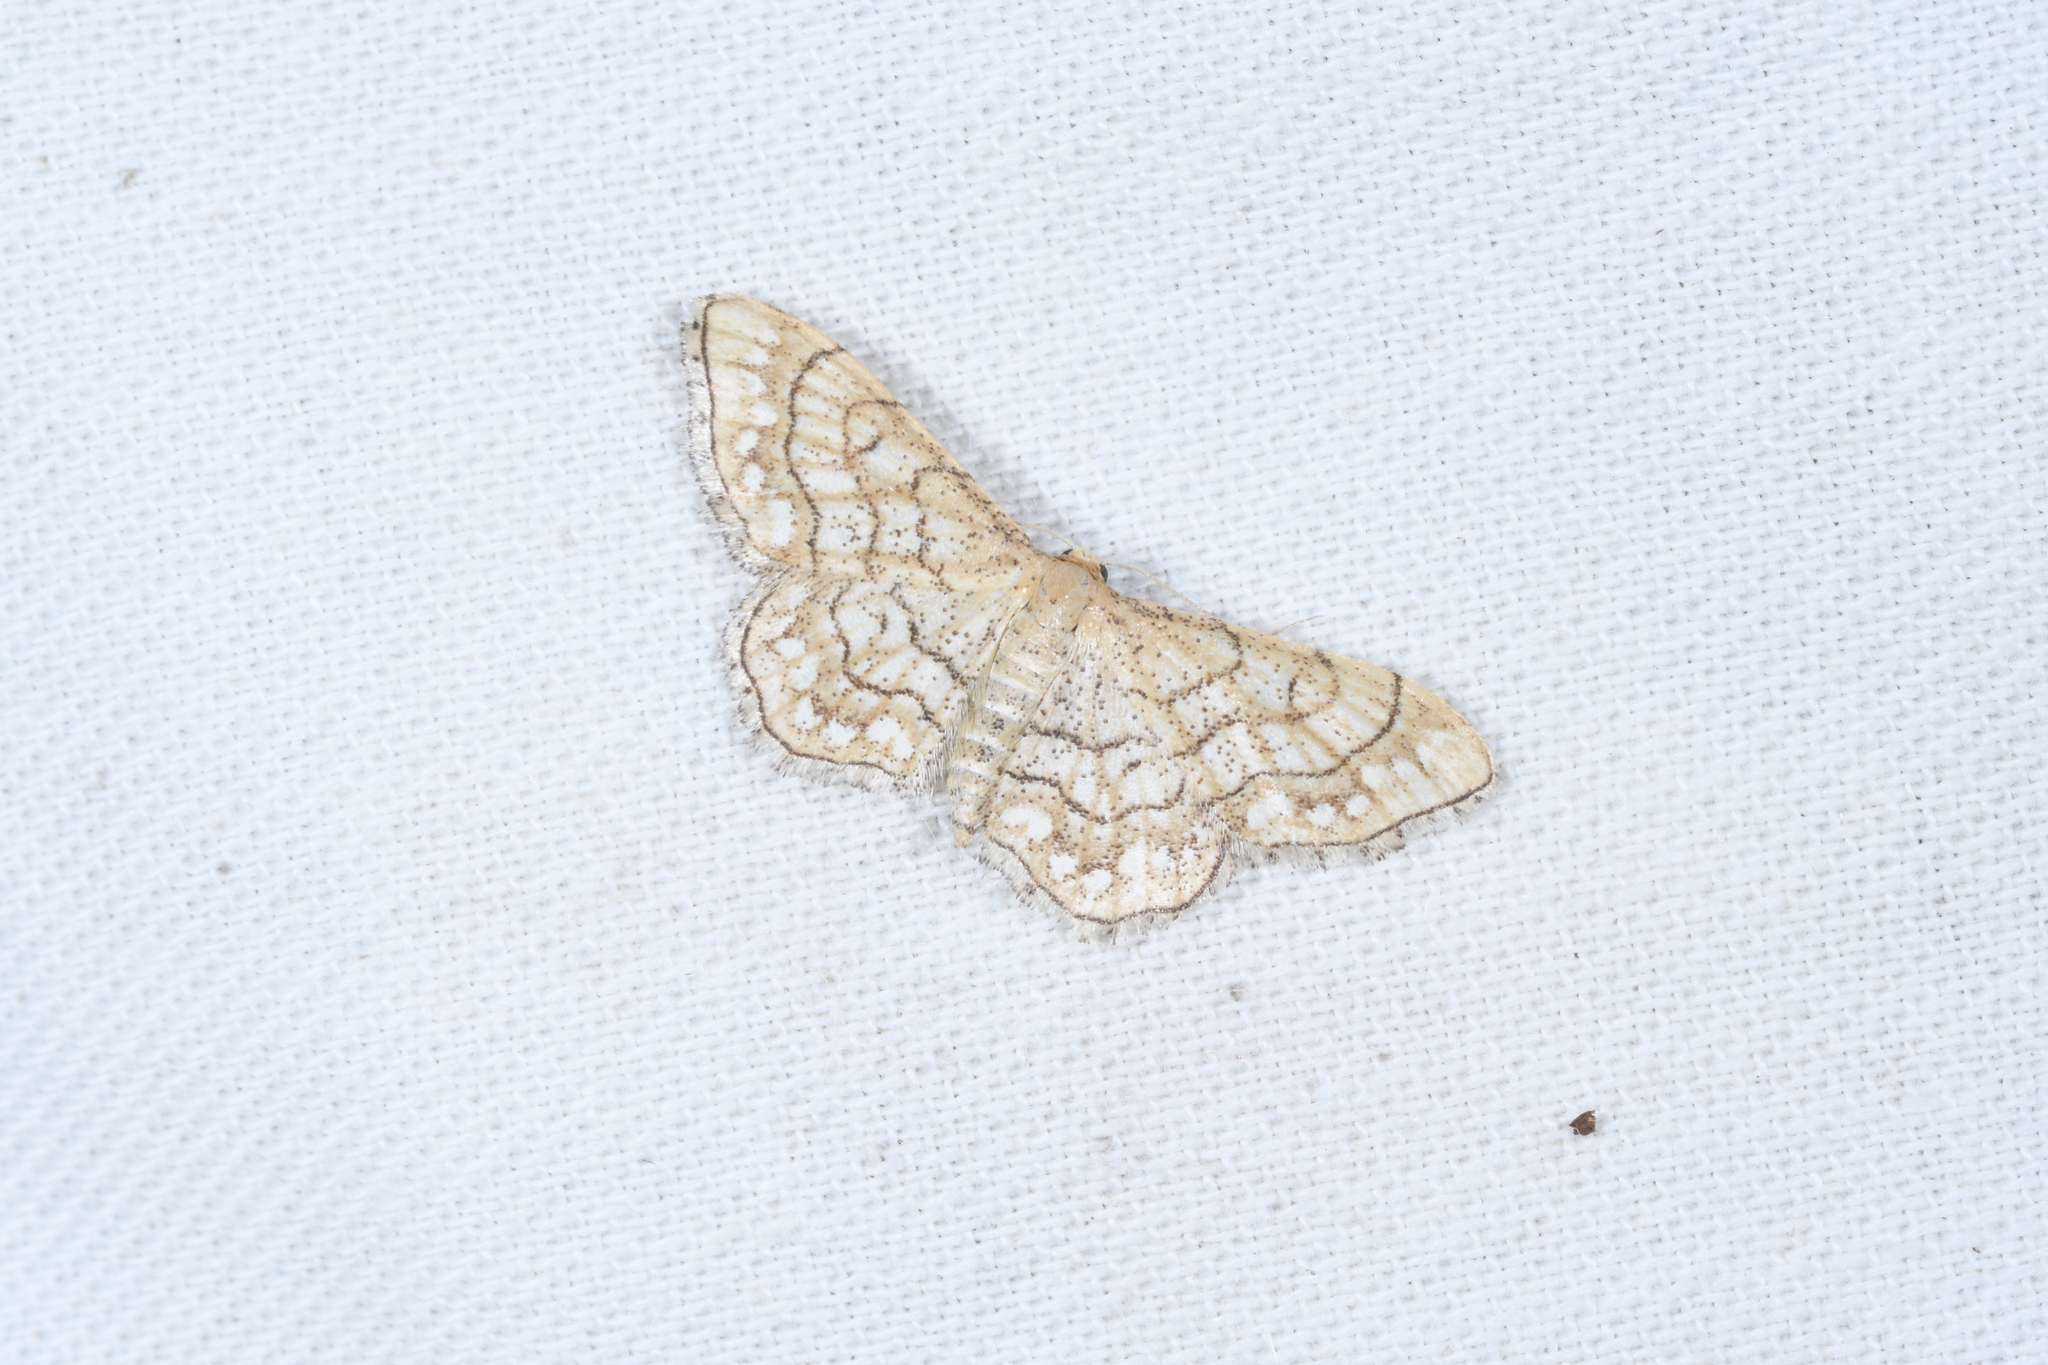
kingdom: Animalia
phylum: Arthropoda
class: Insecta
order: Lepidoptera
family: Geometridae
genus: Idaea
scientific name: Idaea moniliata
